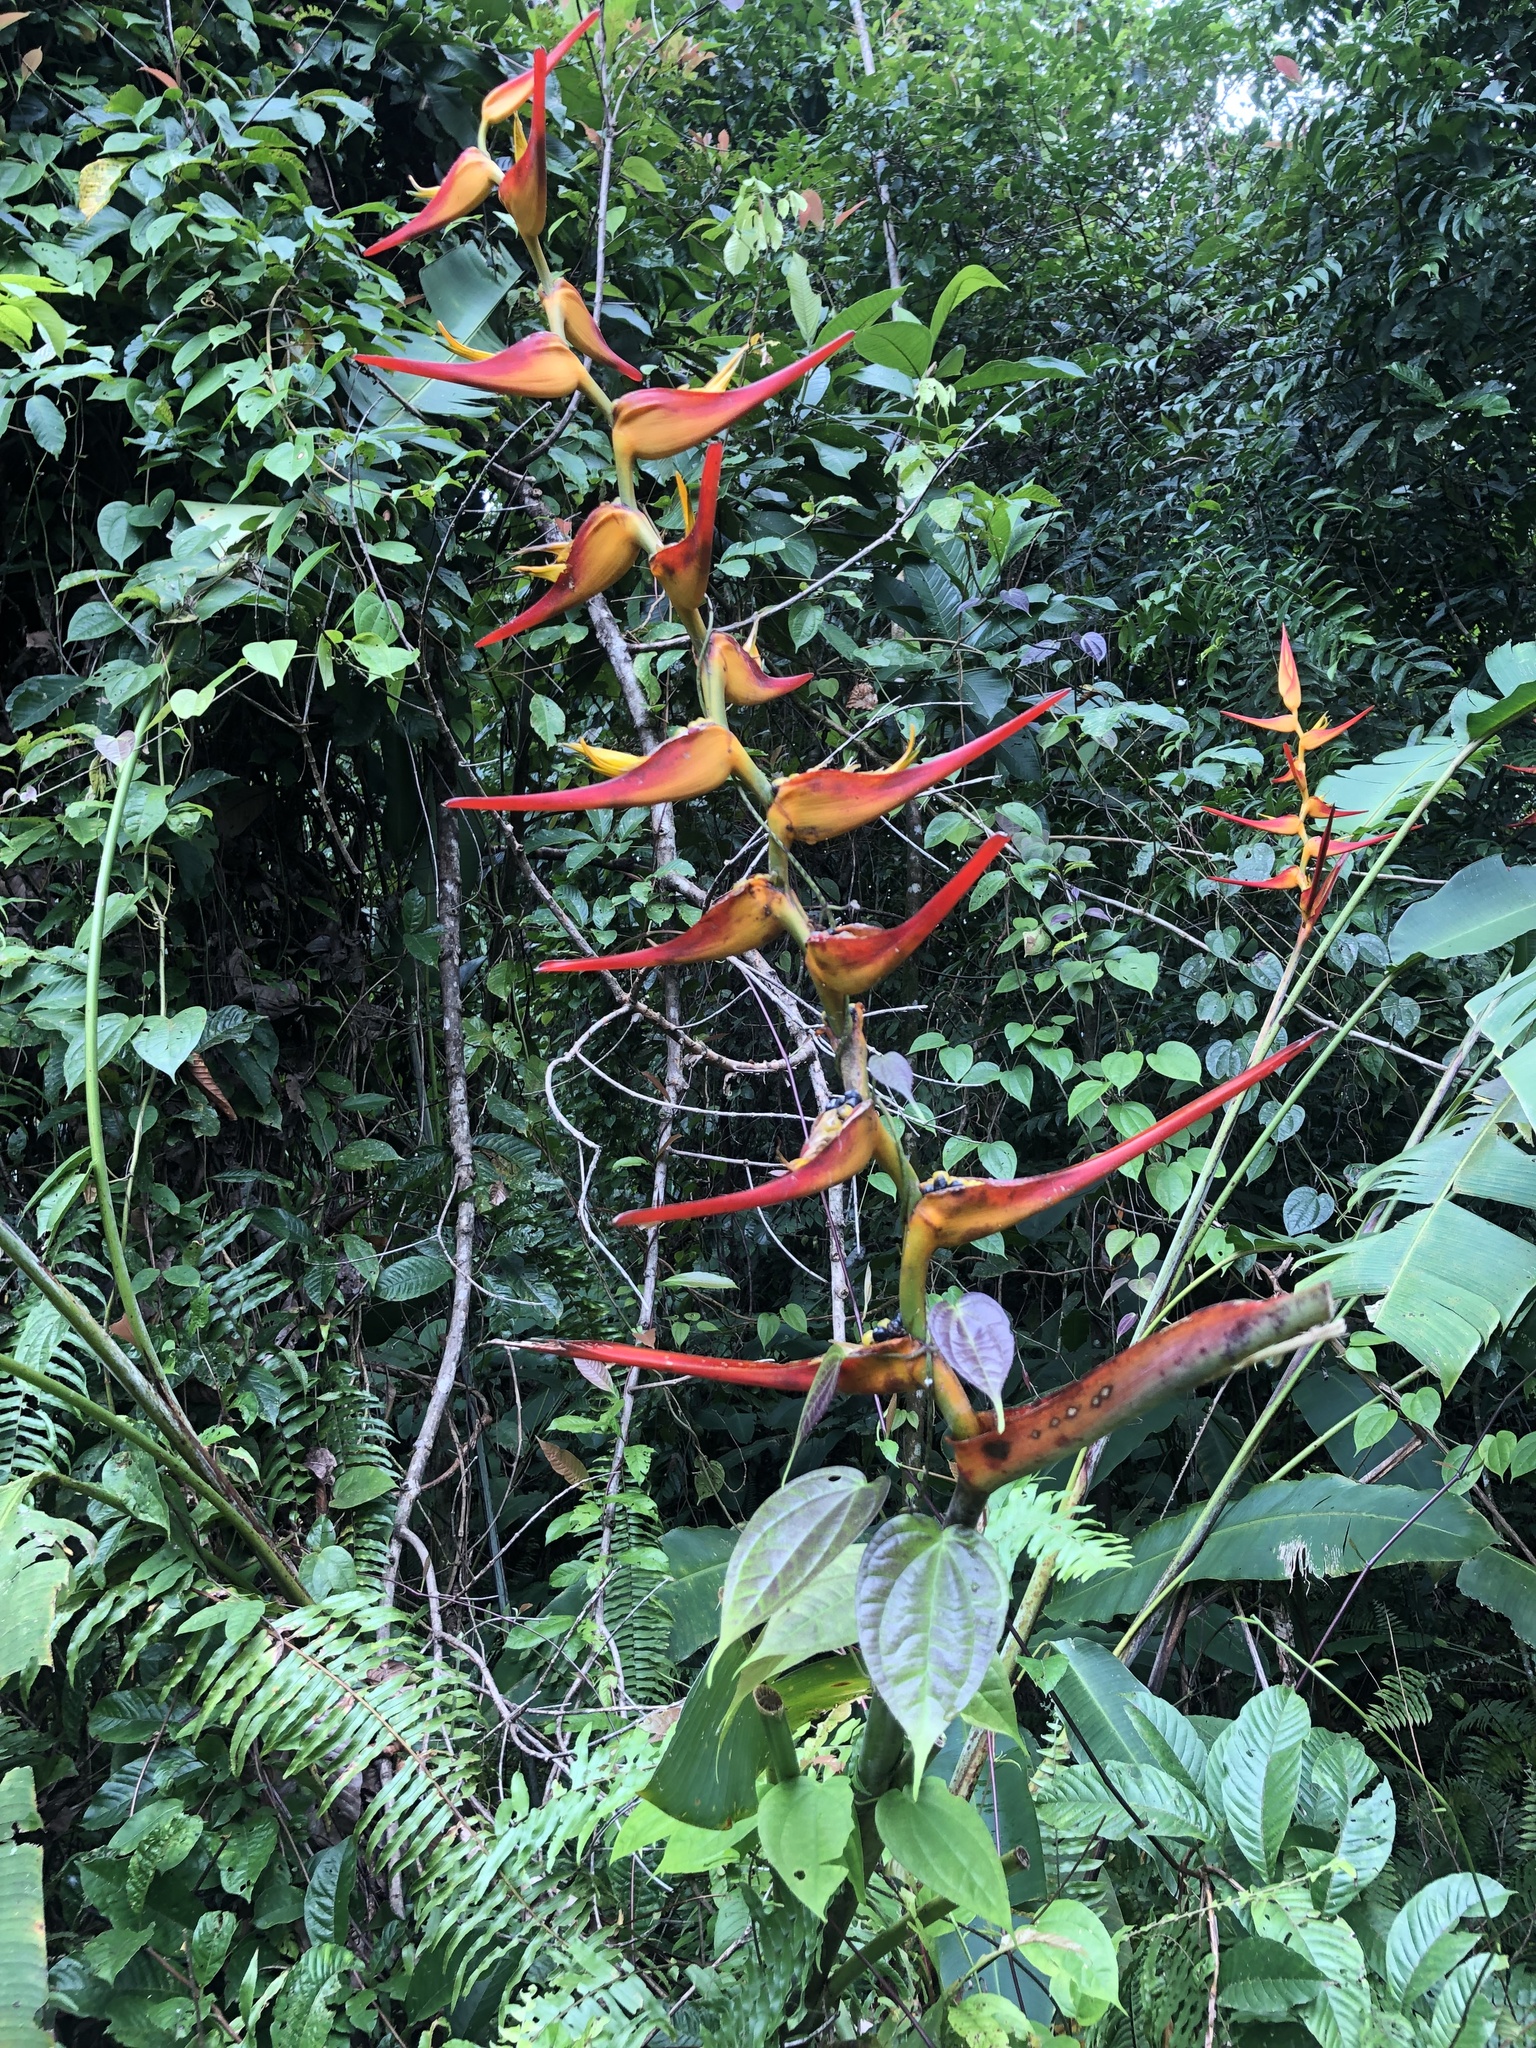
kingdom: Plantae
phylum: Tracheophyta
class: Liliopsida
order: Zingiberales
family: Heliconiaceae
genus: Heliconia
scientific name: Heliconia latispatha
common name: Expanded lobsterclaw
